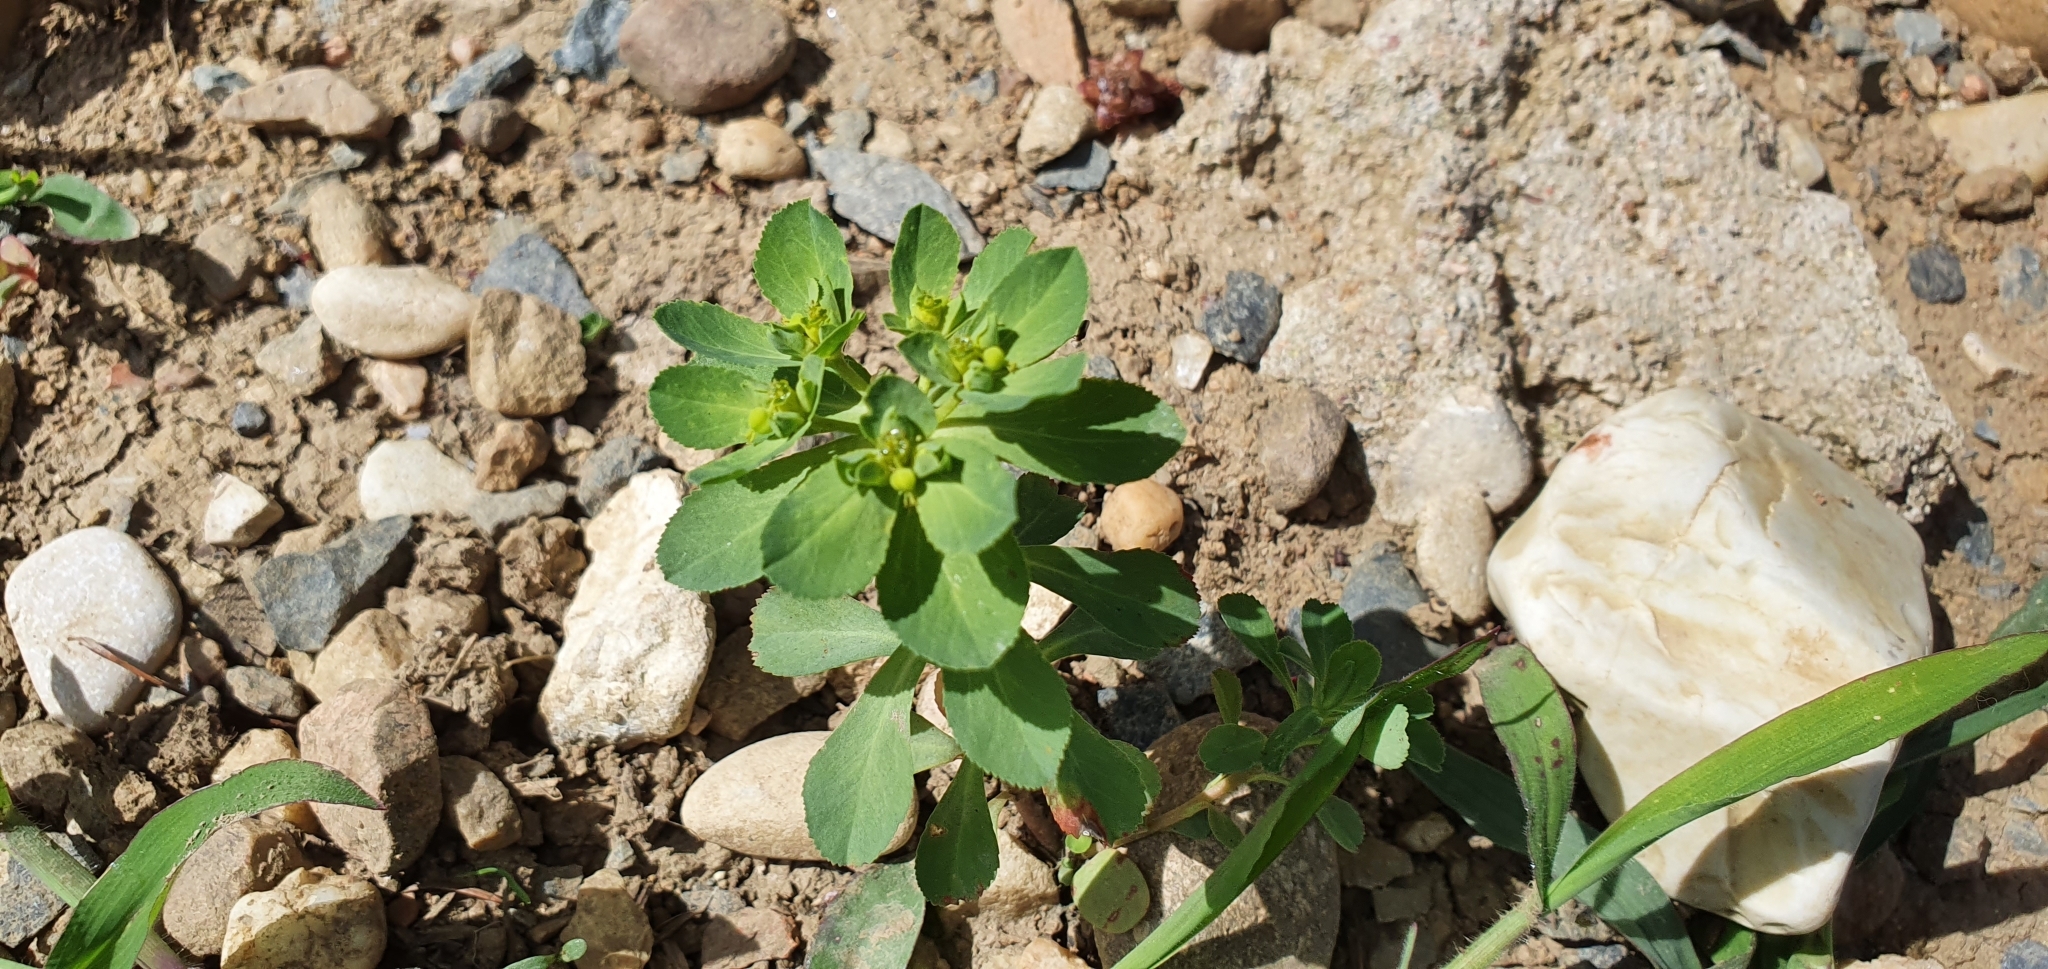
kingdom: Plantae
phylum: Tracheophyta
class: Magnoliopsida
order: Malpighiales
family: Euphorbiaceae
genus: Euphorbia
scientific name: Euphorbia helioscopia
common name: Sun spurge
